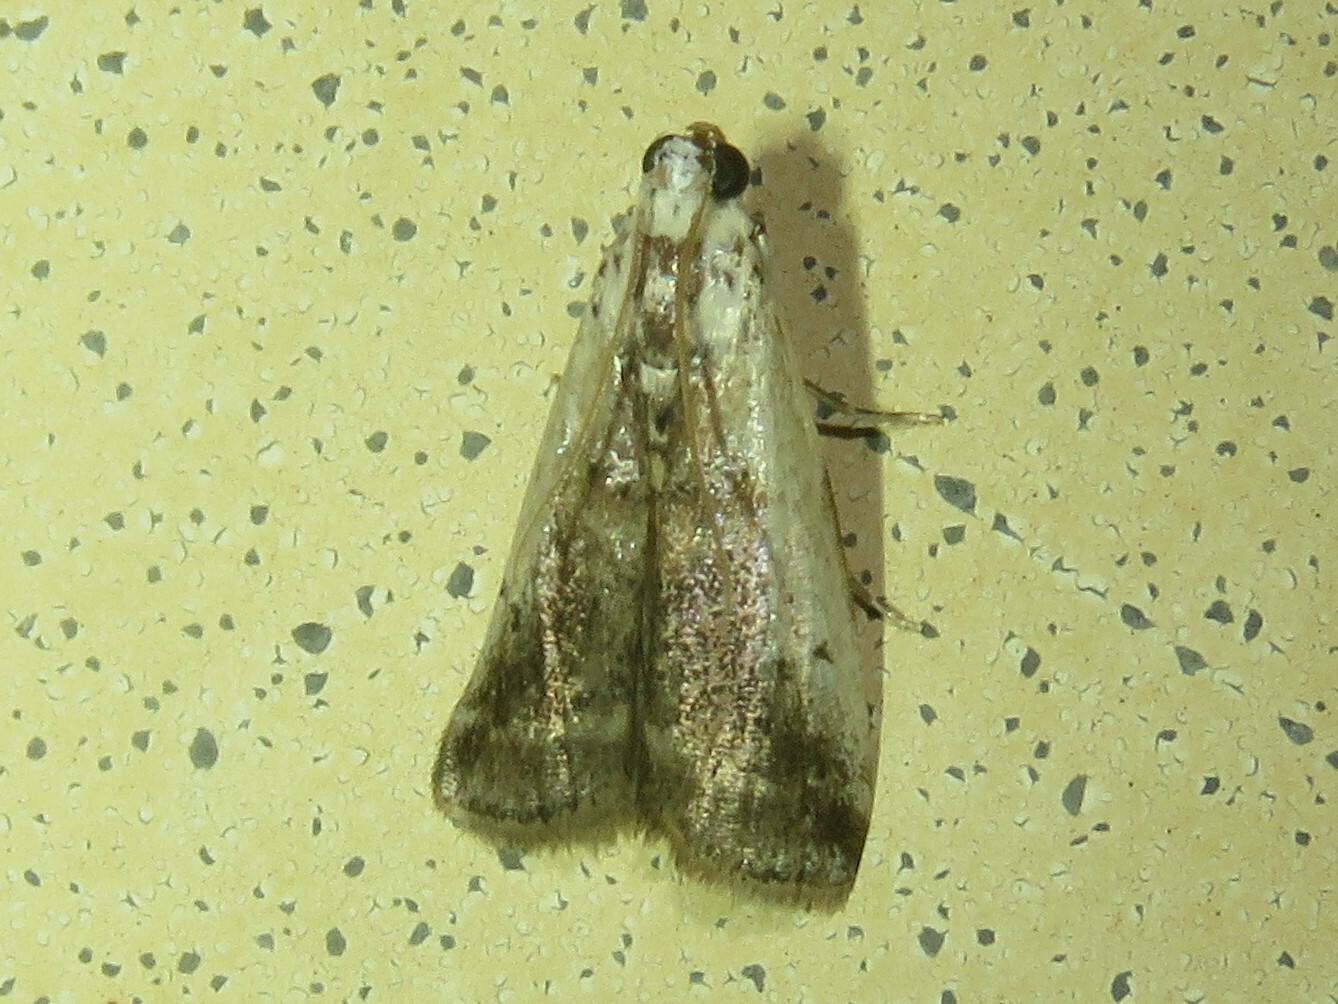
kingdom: Animalia
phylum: Arthropoda
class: Insecta
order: Lepidoptera
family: Pyralidae
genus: Acrobasis
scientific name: Acrobasis caryivorella
